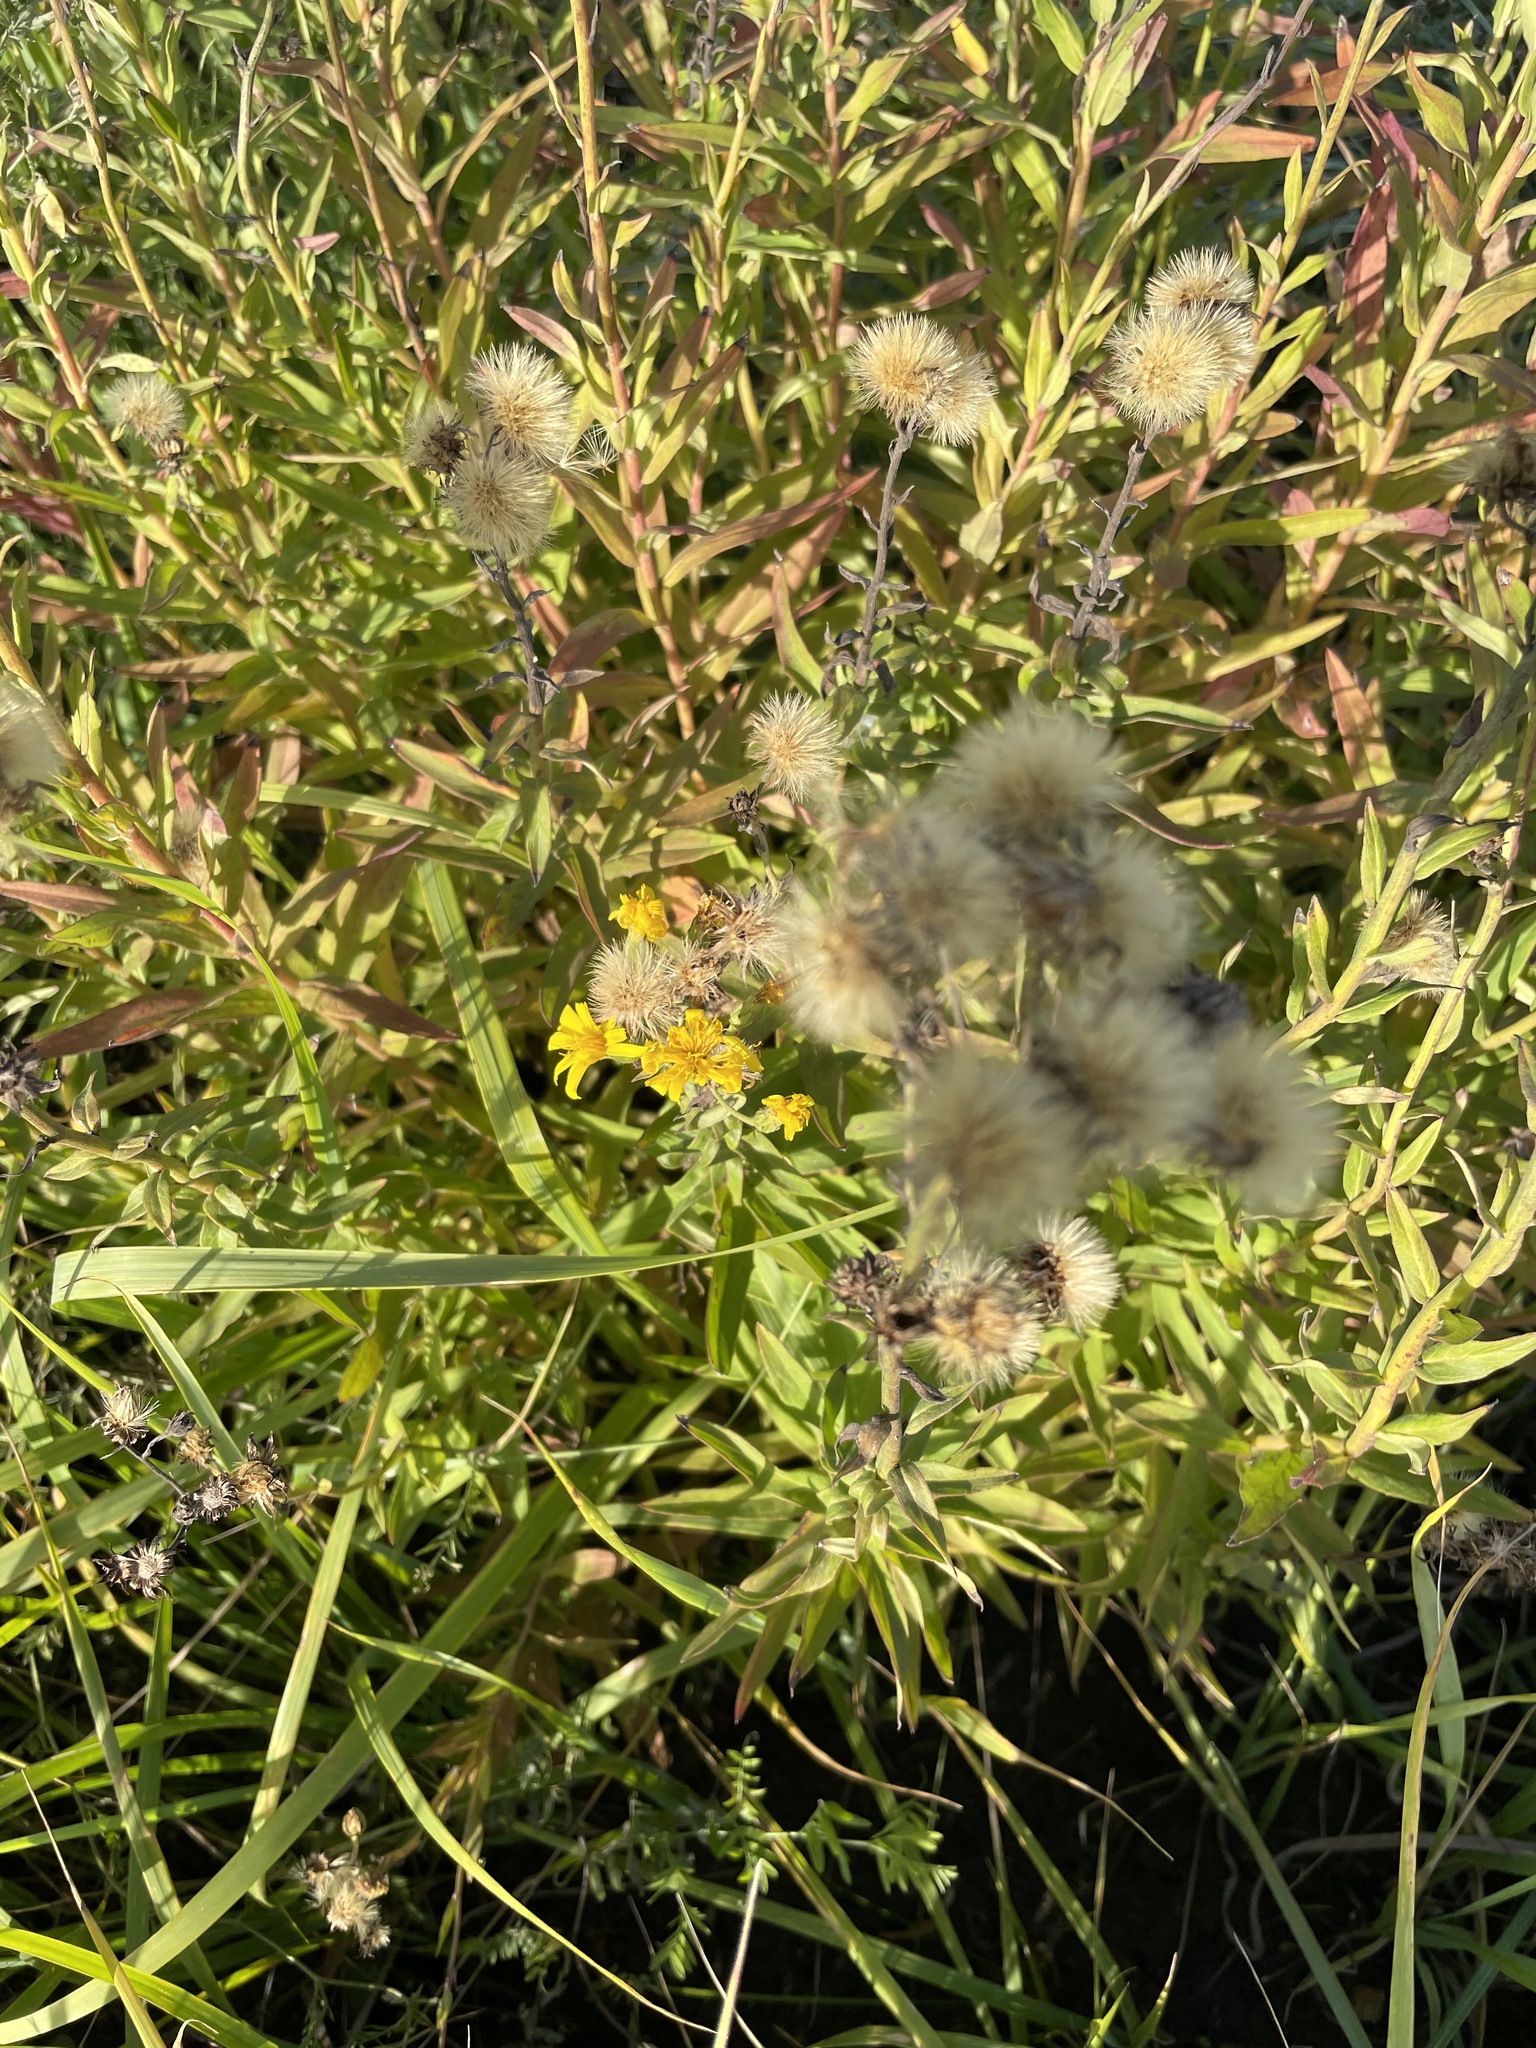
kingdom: Plantae
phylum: Tracheophyta
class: Magnoliopsida
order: Asterales
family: Asteraceae
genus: Hieracium
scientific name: Hieracium umbellatum
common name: Northern hawkweed
